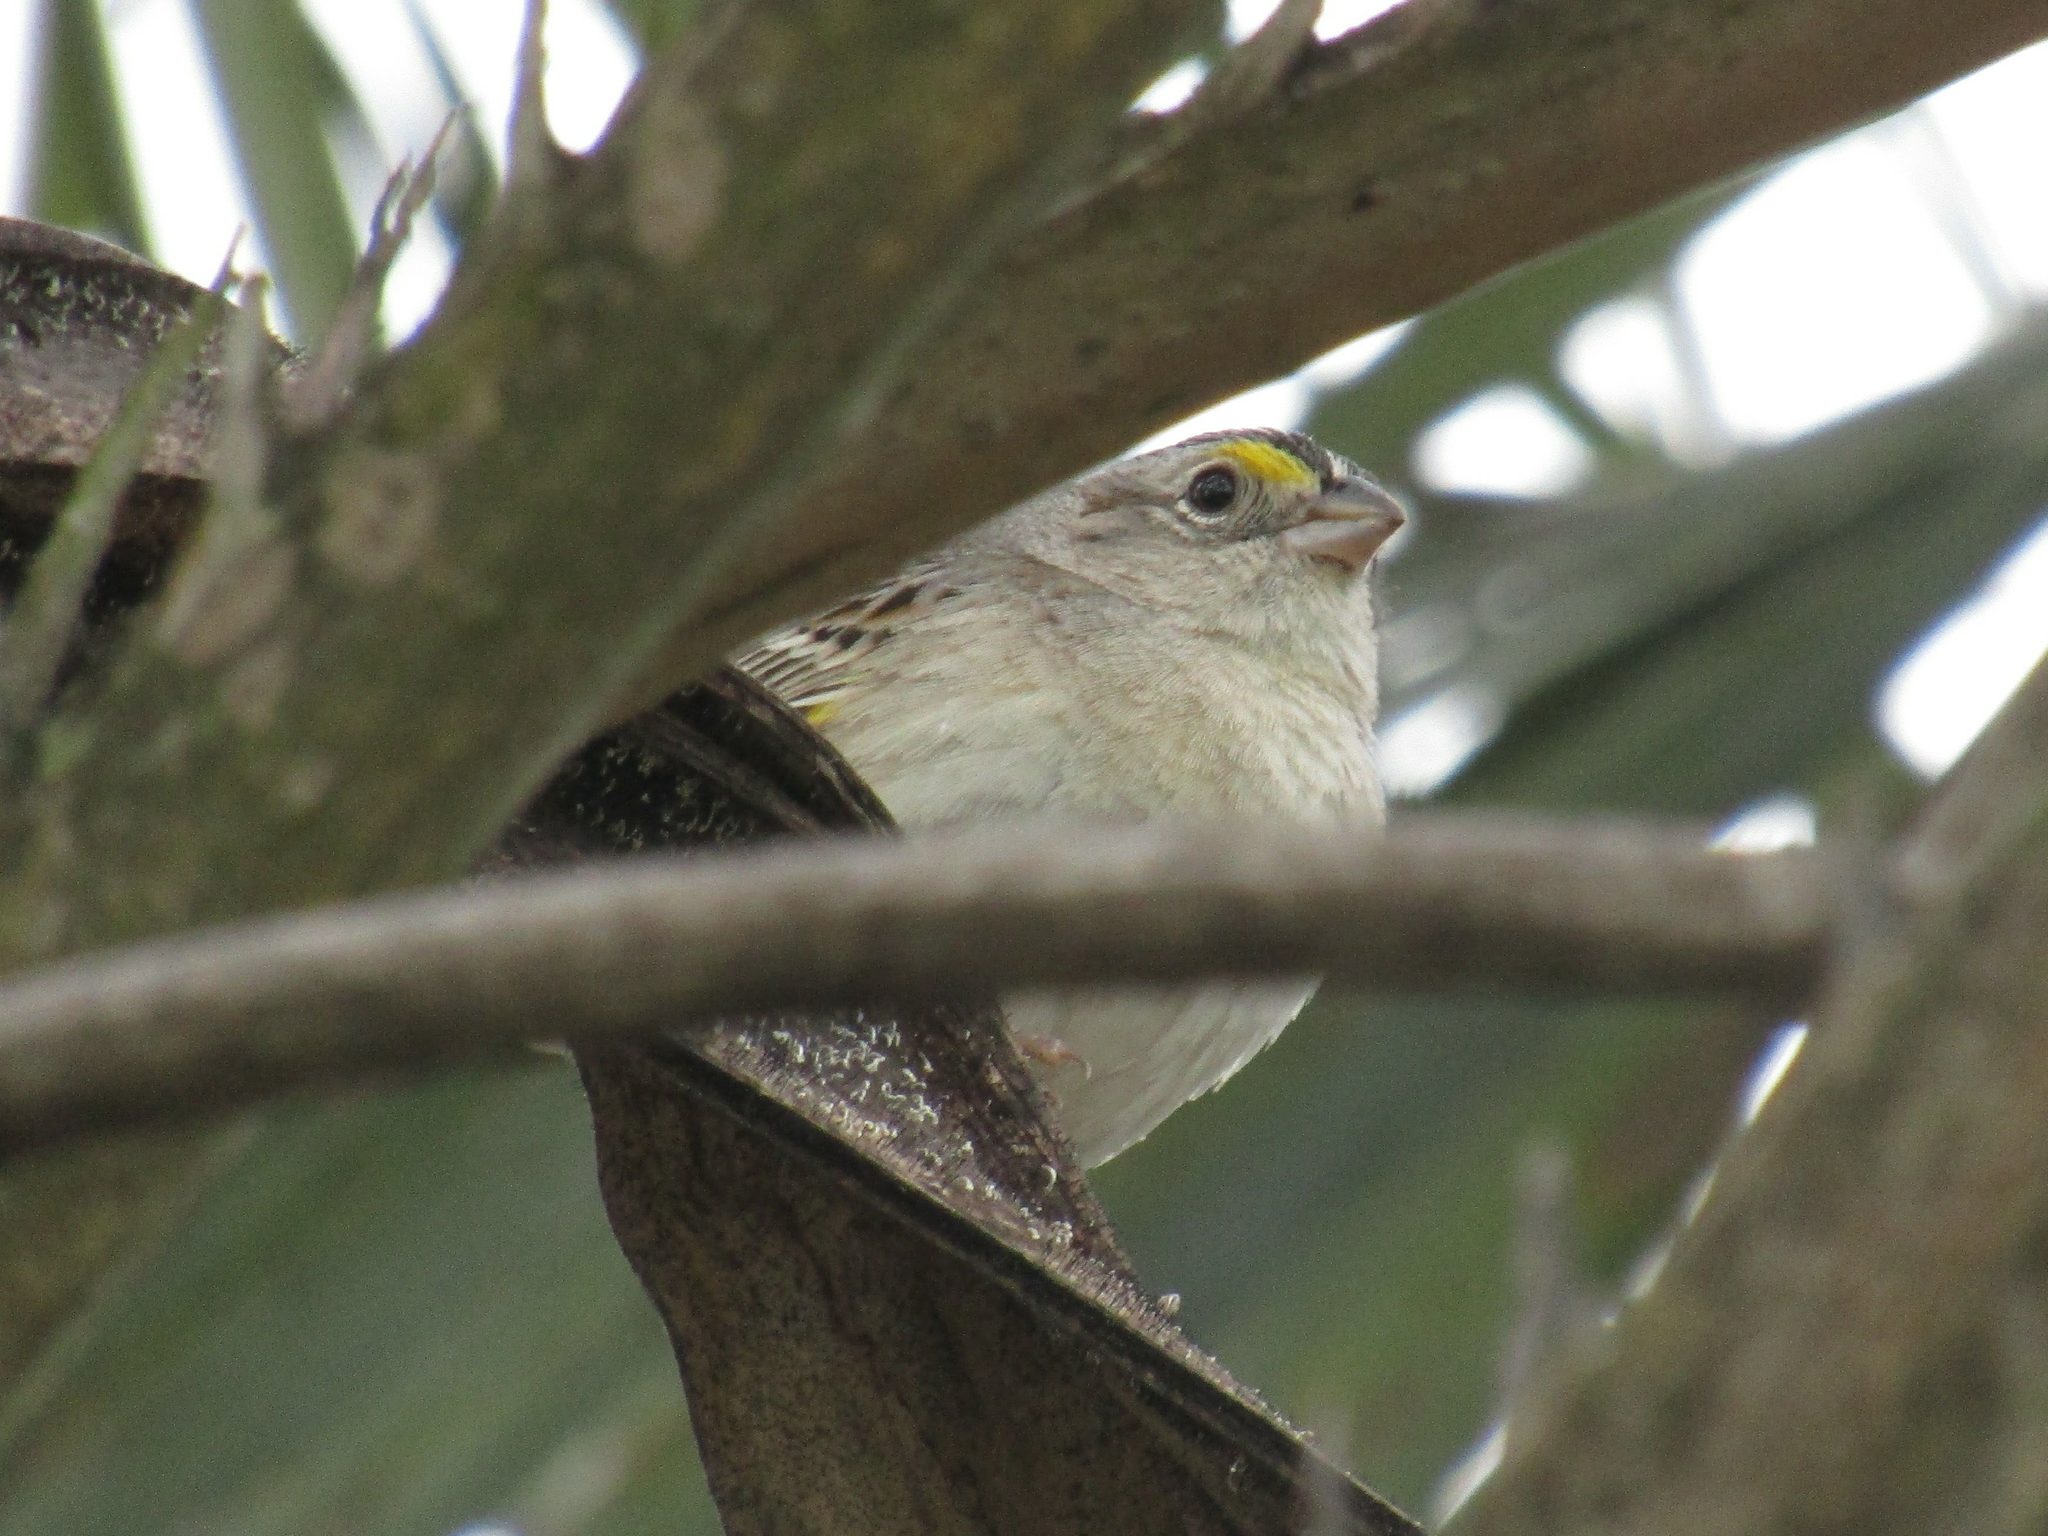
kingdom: Animalia
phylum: Chordata
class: Aves
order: Passeriformes
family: Passerellidae
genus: Ammodramus
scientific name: Ammodramus humeralis
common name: Grassland sparrow
